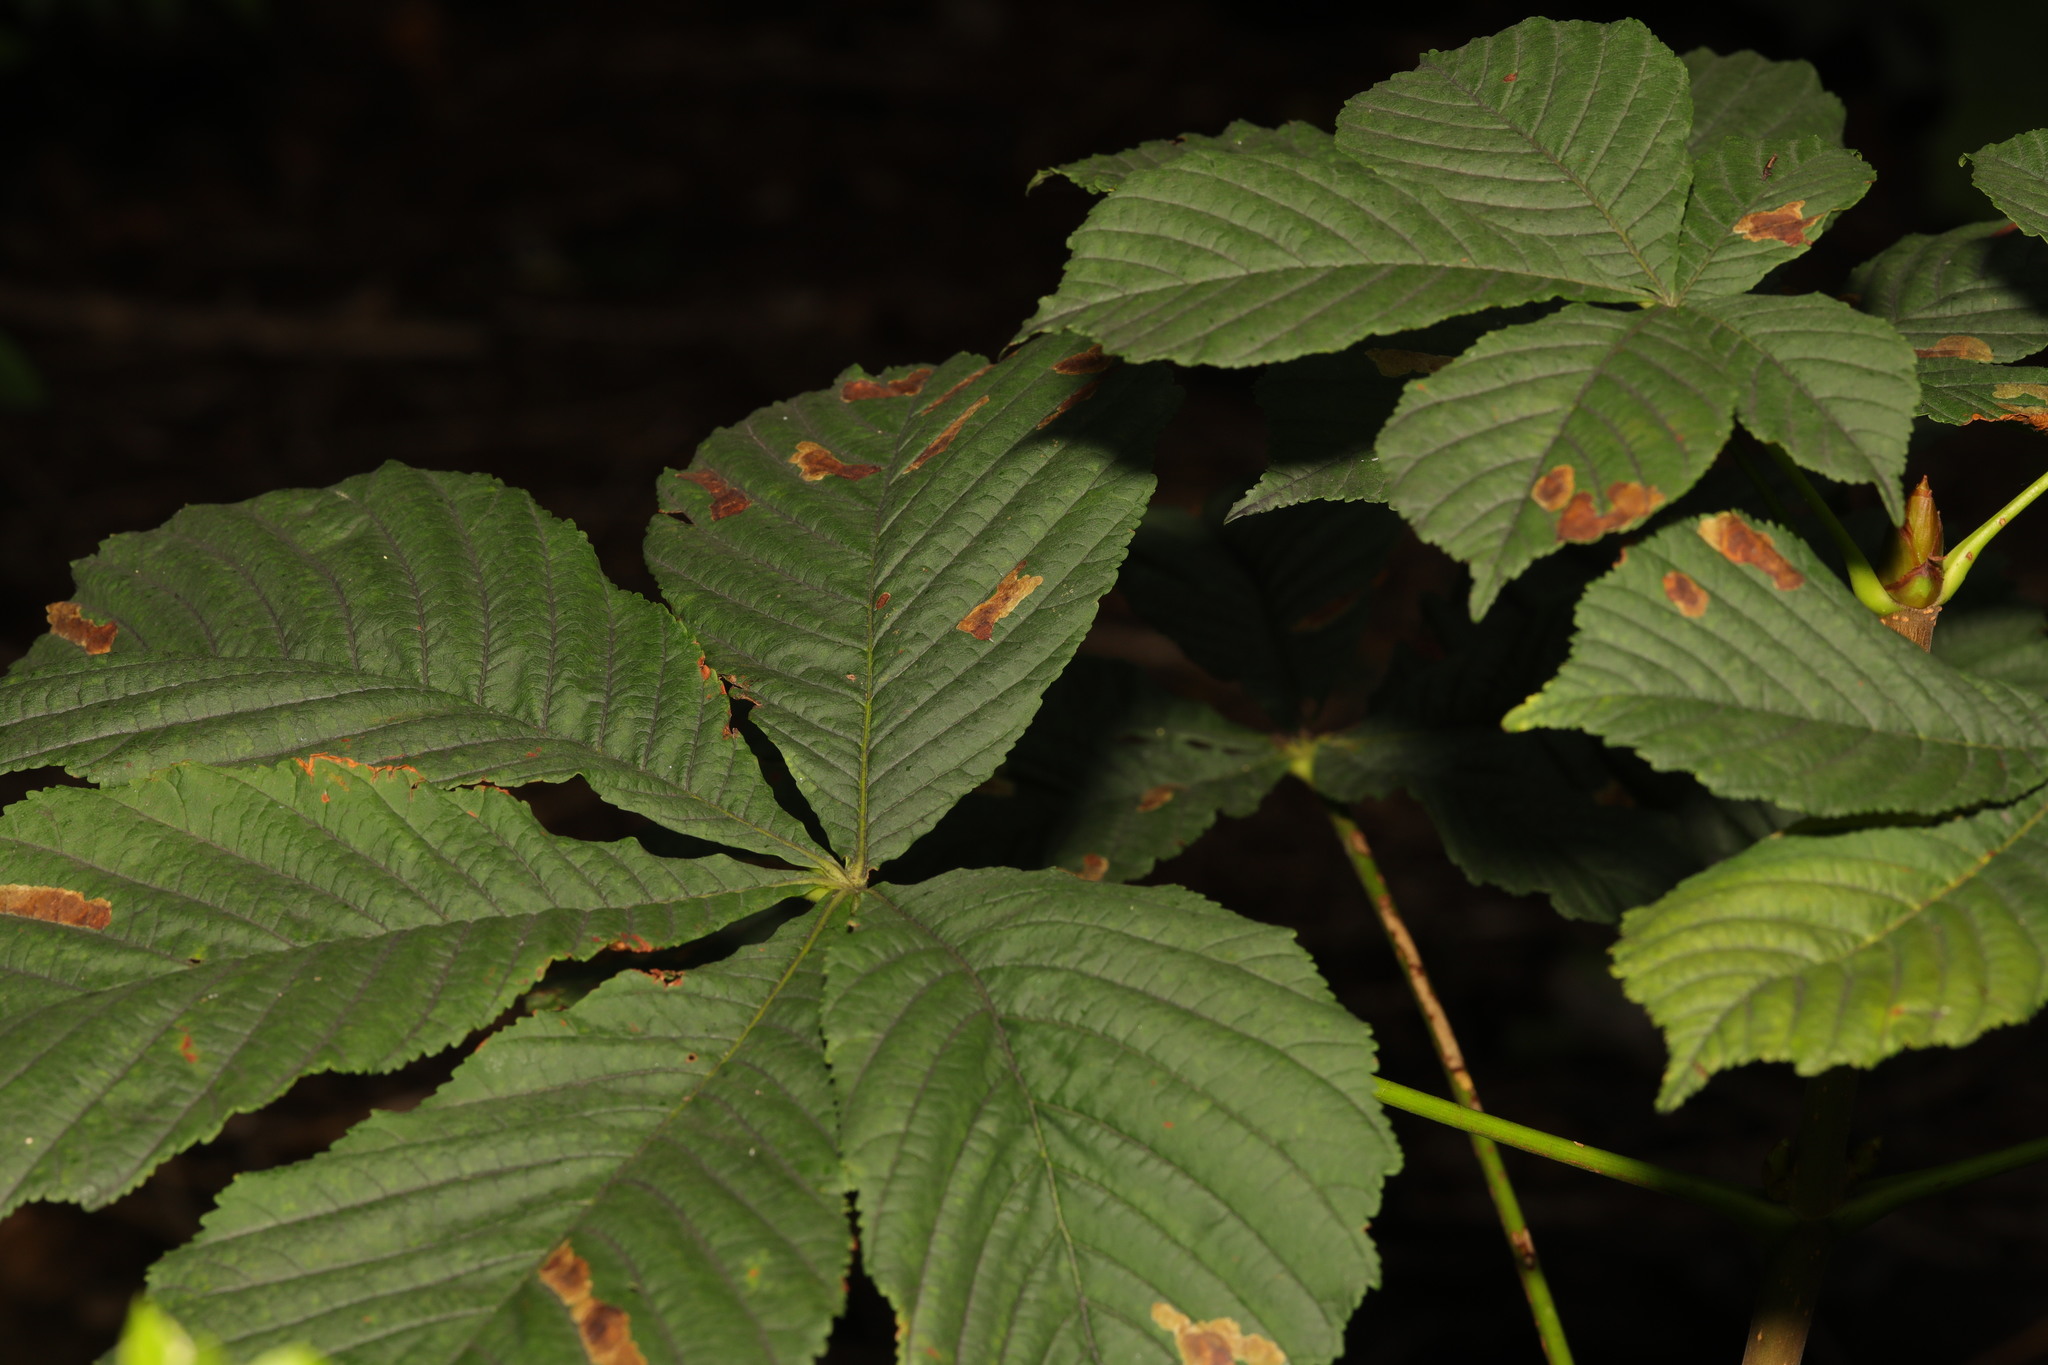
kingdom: Plantae
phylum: Tracheophyta
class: Magnoliopsida
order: Sapindales
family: Sapindaceae
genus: Aesculus
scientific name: Aesculus hippocastanum
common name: Horse-chestnut
